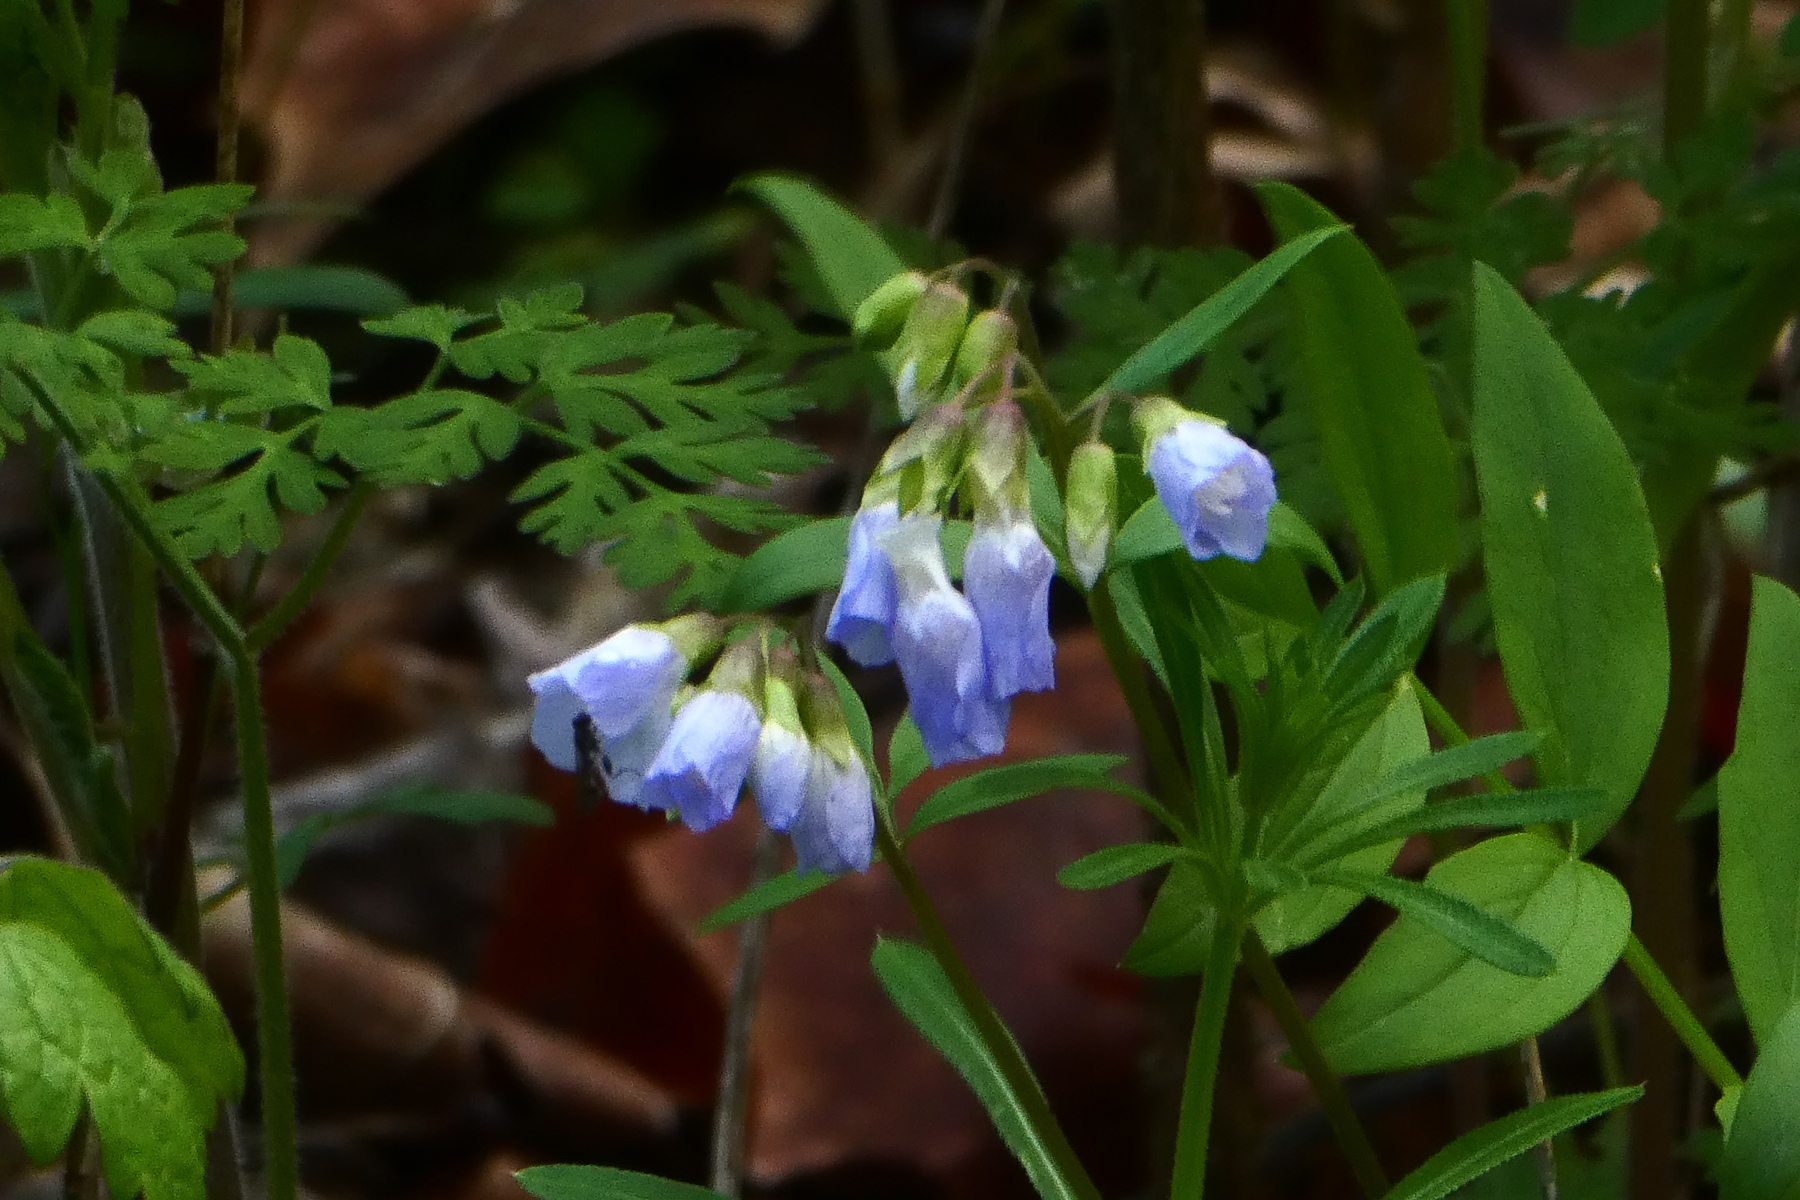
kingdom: Plantae
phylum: Tracheophyta
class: Magnoliopsida
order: Ericales
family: Polemoniaceae
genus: Polemonium
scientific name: Polemonium reptans
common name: Creeping jacob's-ladder
